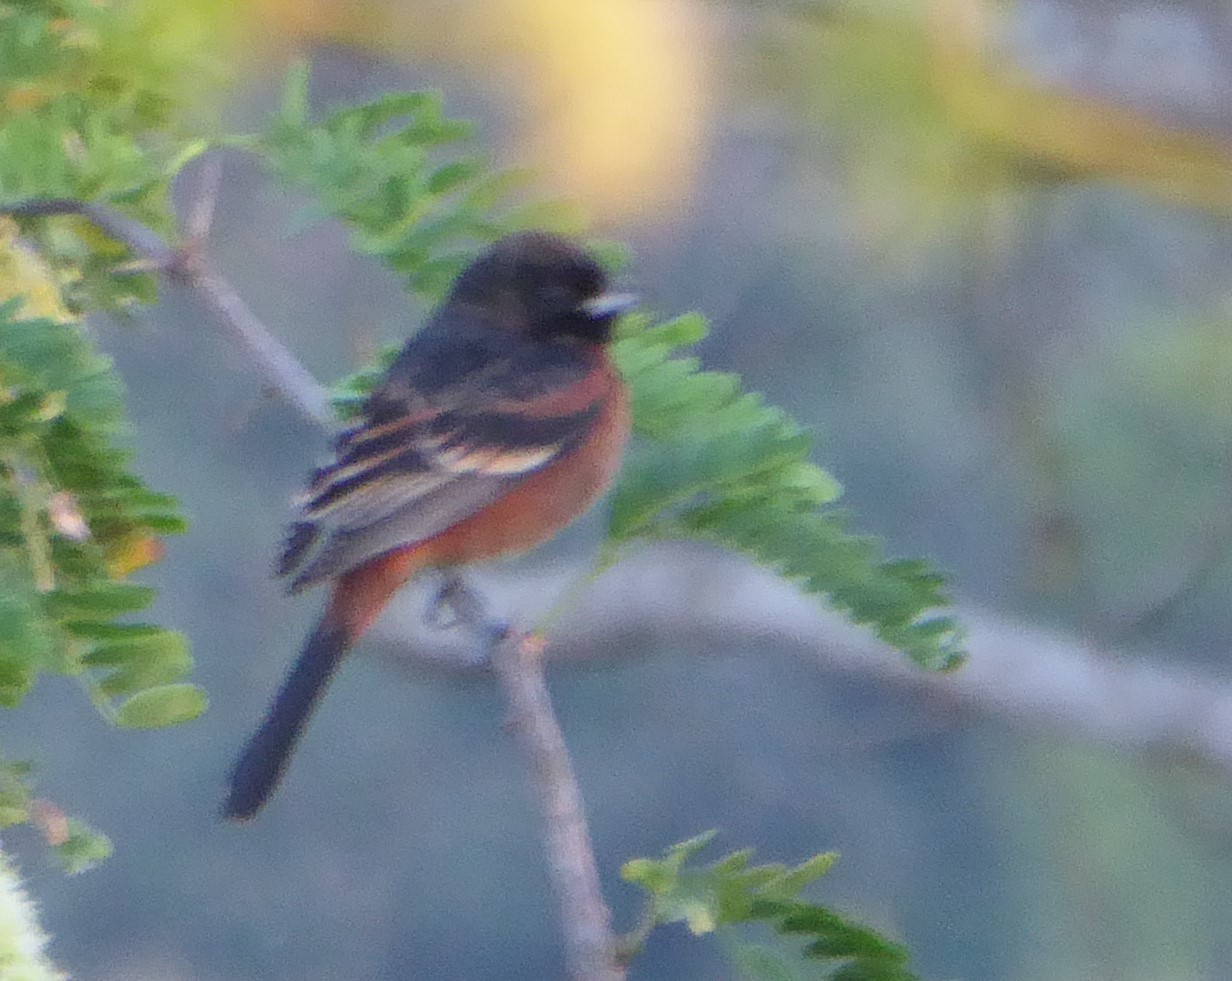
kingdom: Animalia
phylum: Chordata
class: Aves
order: Passeriformes
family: Icteridae
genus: Icterus
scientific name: Icterus spurius
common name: Orchard oriole
